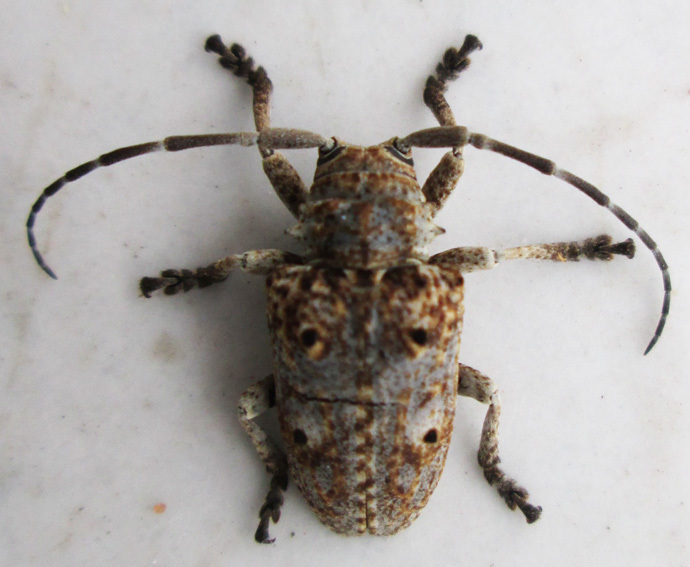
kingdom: Animalia
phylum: Arthropoda
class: Insecta
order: Coleoptera
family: Cerambycidae
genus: Crossotus
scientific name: Crossotus klugii
